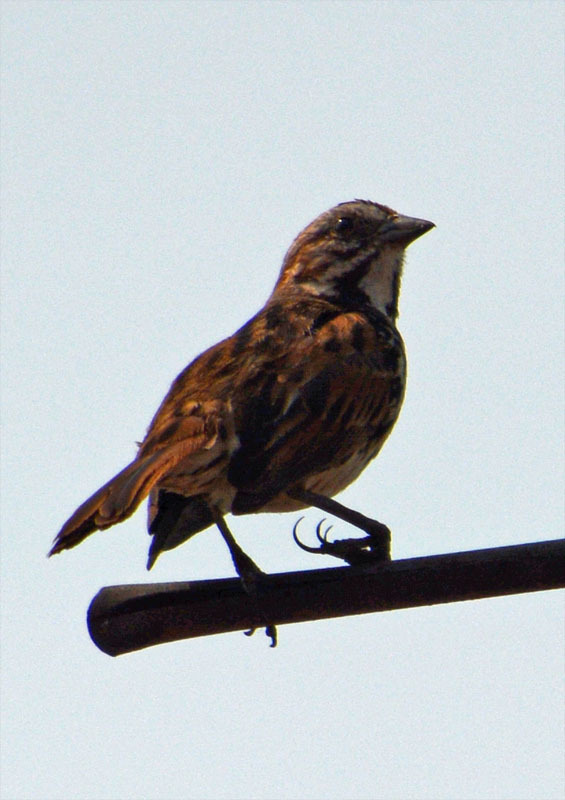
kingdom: Animalia
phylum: Chordata
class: Aves
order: Passeriformes
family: Passerellidae
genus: Melospiza
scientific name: Melospiza melodia
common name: Song sparrow
